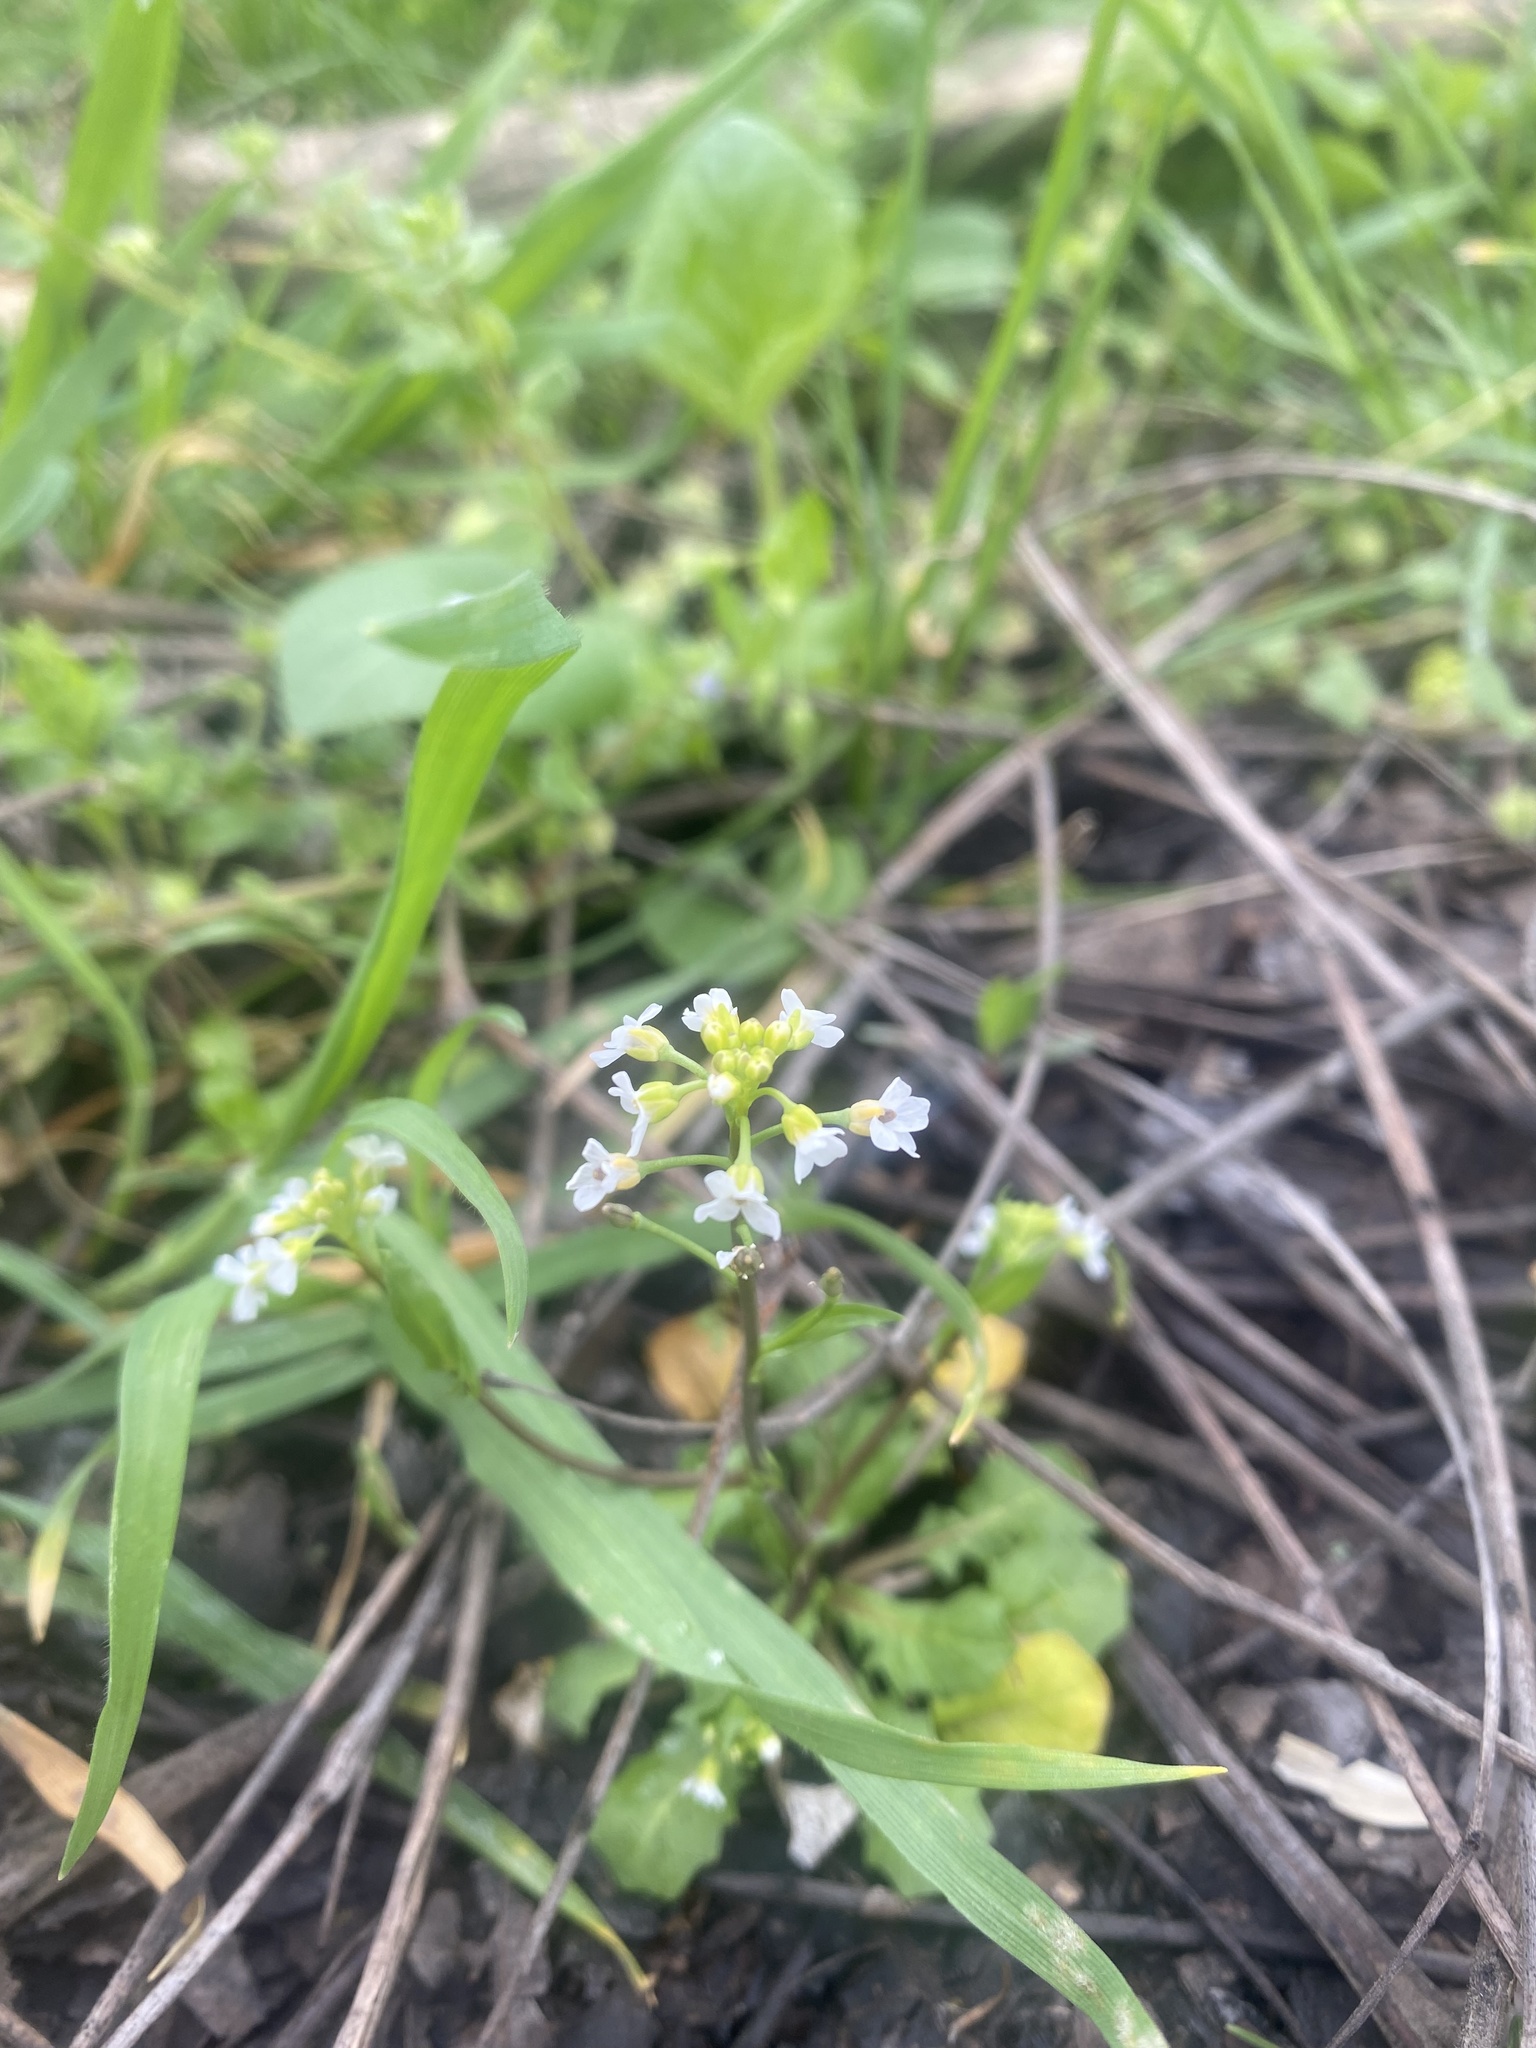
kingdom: Plantae
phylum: Tracheophyta
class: Magnoliopsida
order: Brassicales
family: Brassicaceae
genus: Calepina
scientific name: Calepina irregularis
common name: White ballmustard
